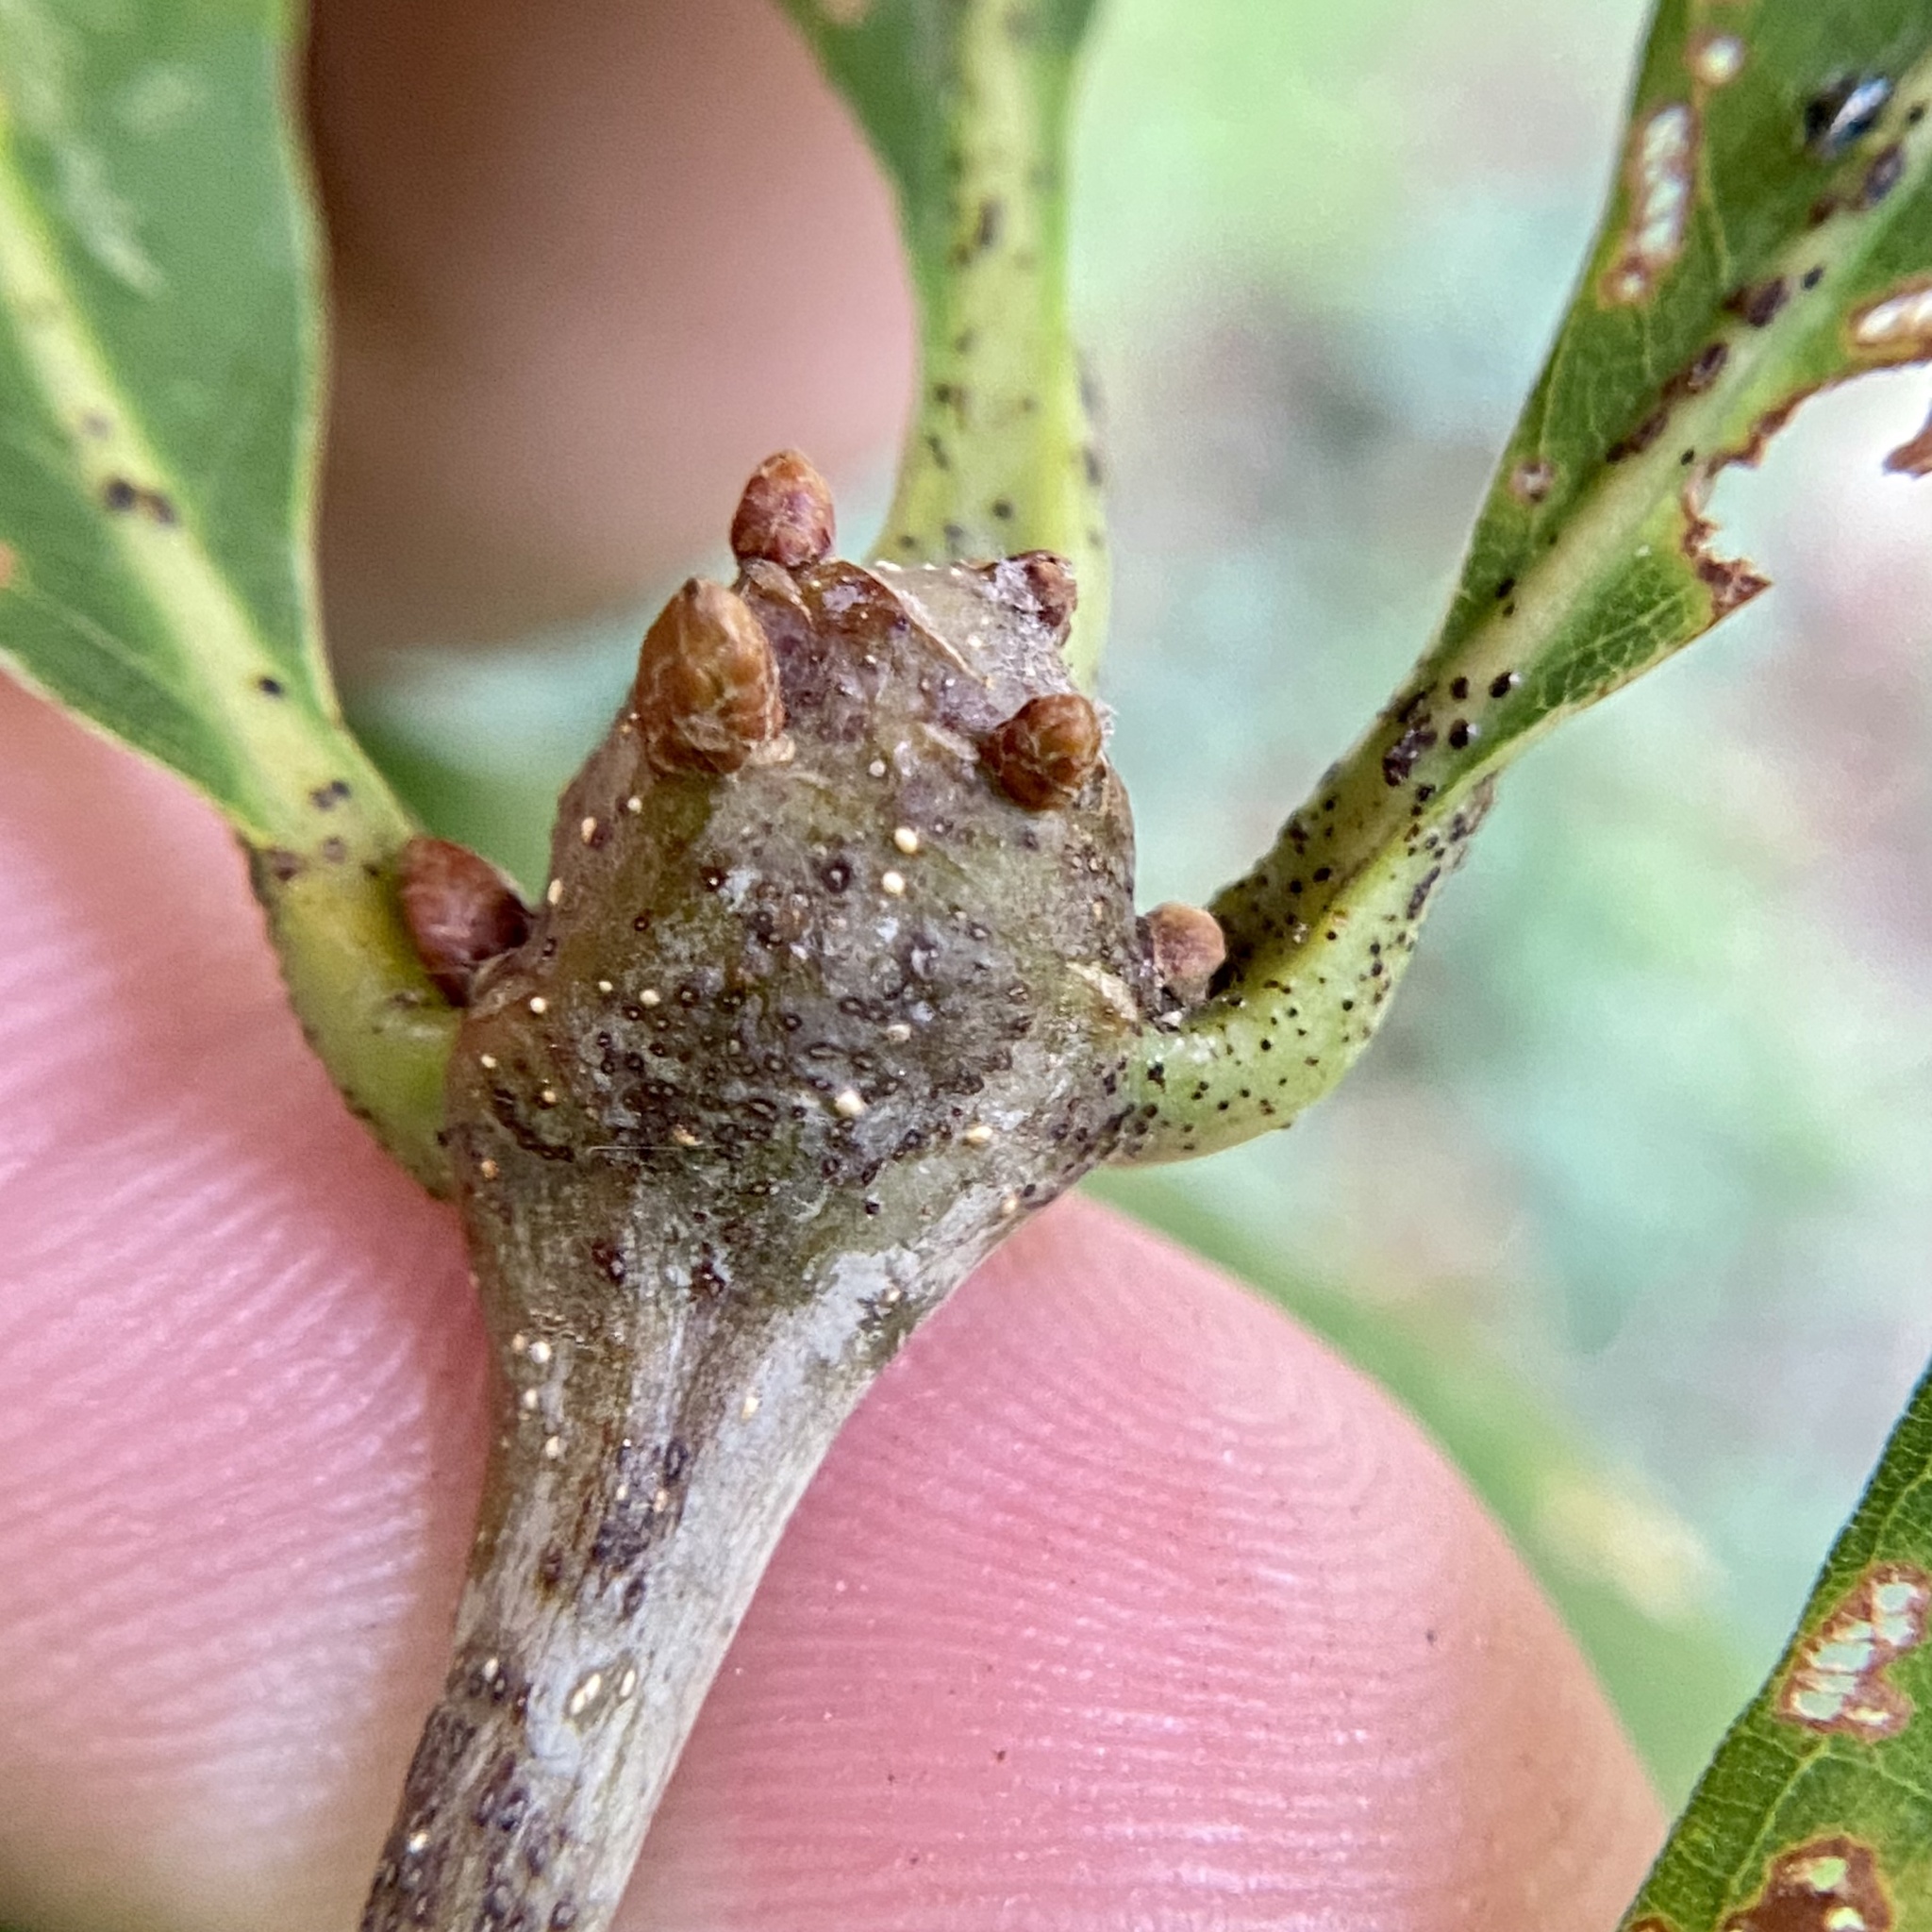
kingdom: Animalia
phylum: Arthropoda
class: Insecta
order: Hymenoptera
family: Cynipidae
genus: Callirhytis
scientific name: Callirhytis clavula
